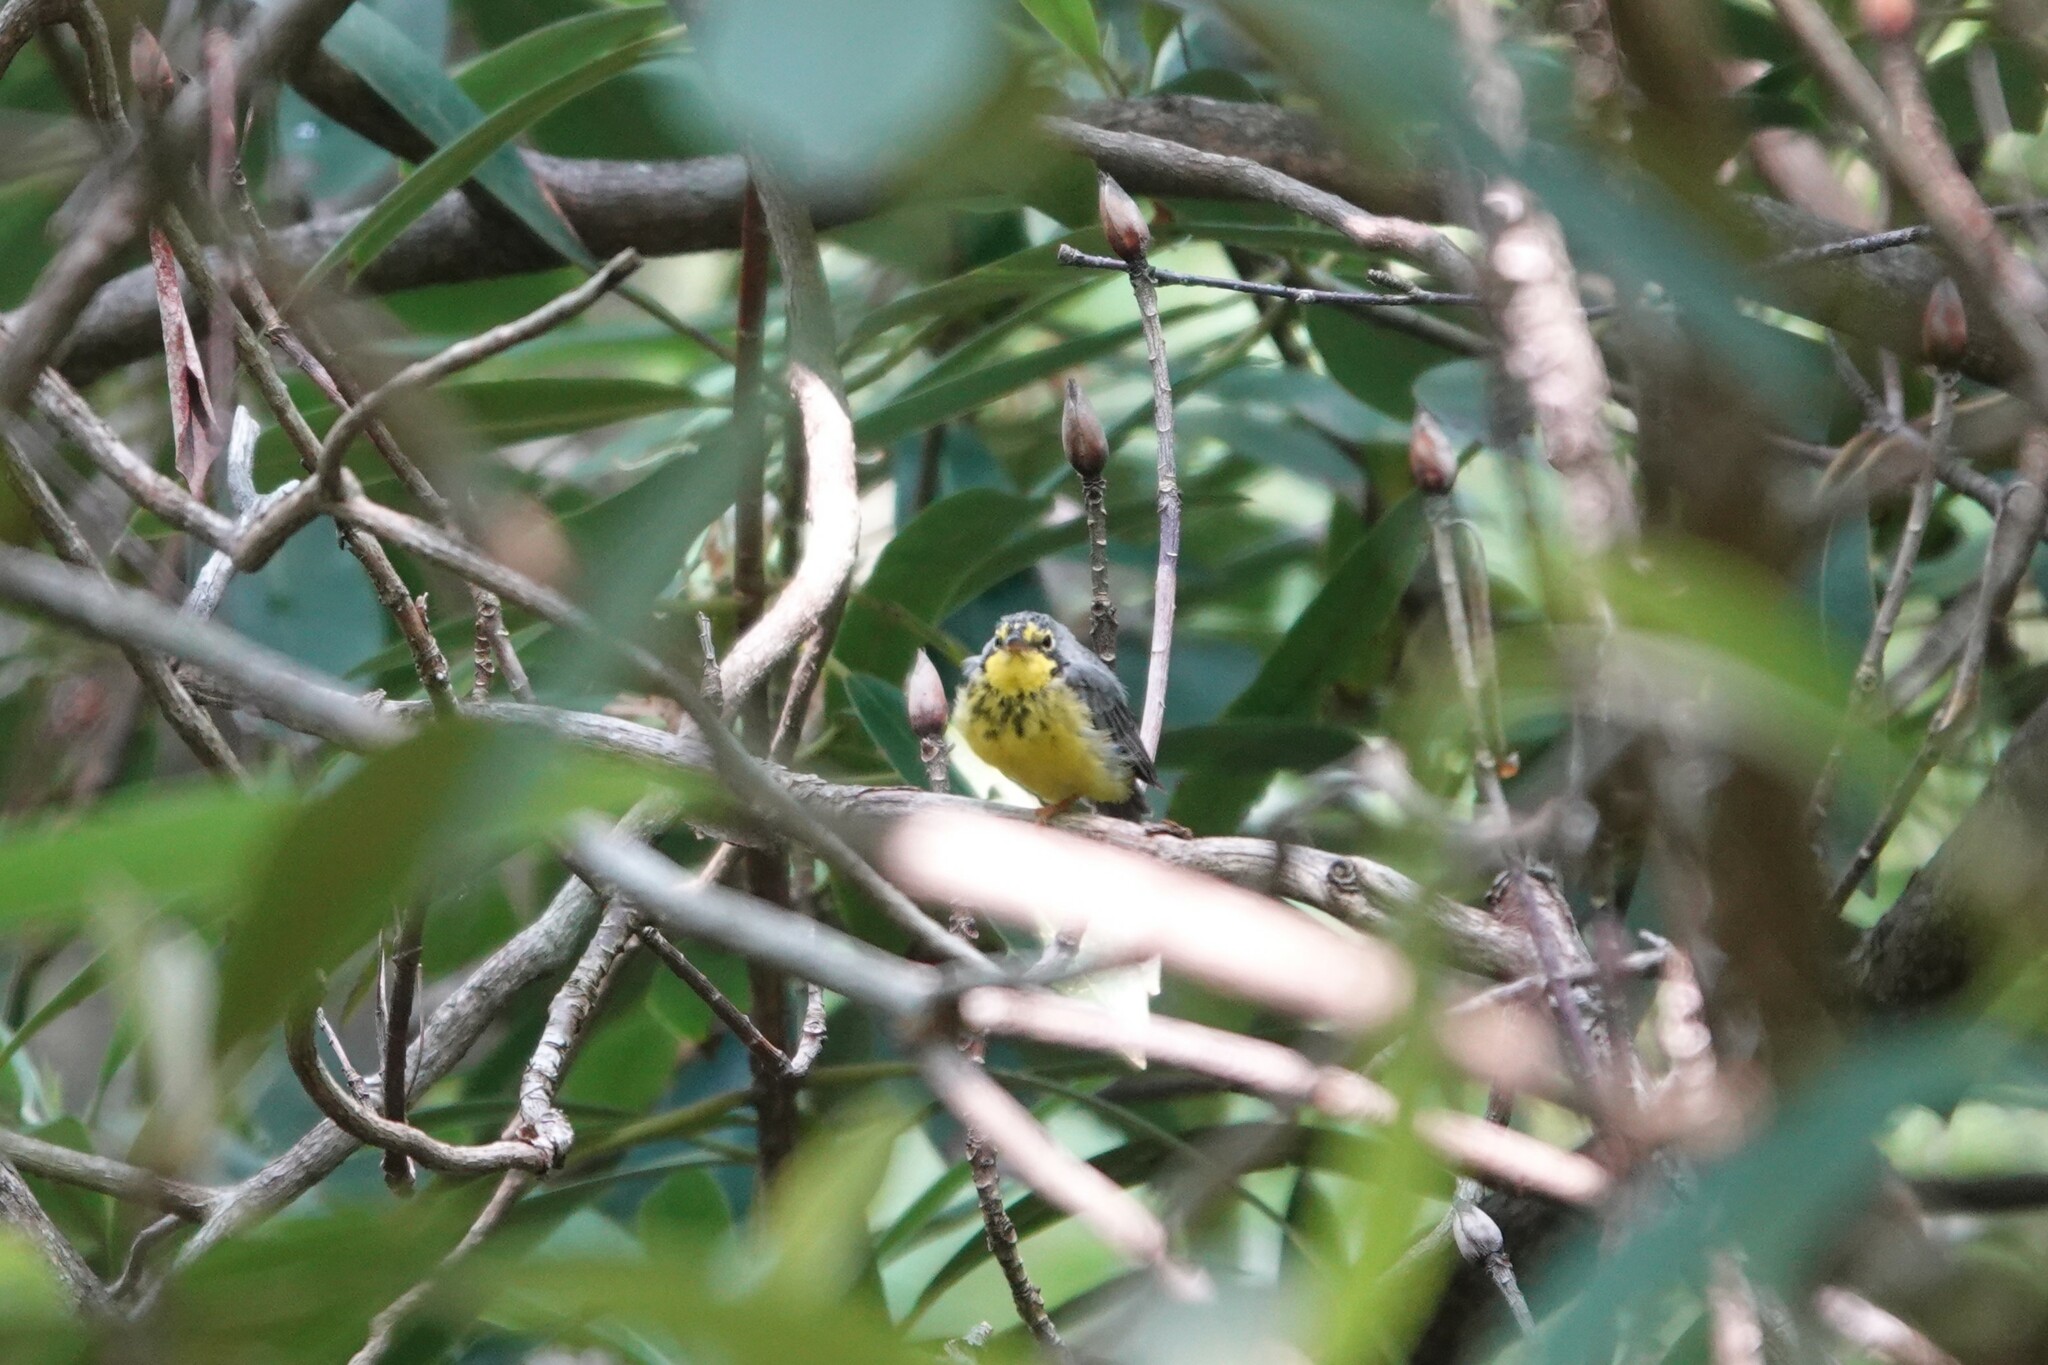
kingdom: Animalia
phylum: Chordata
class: Aves
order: Passeriformes
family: Parulidae
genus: Cardellina
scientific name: Cardellina canadensis
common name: Canada warbler
